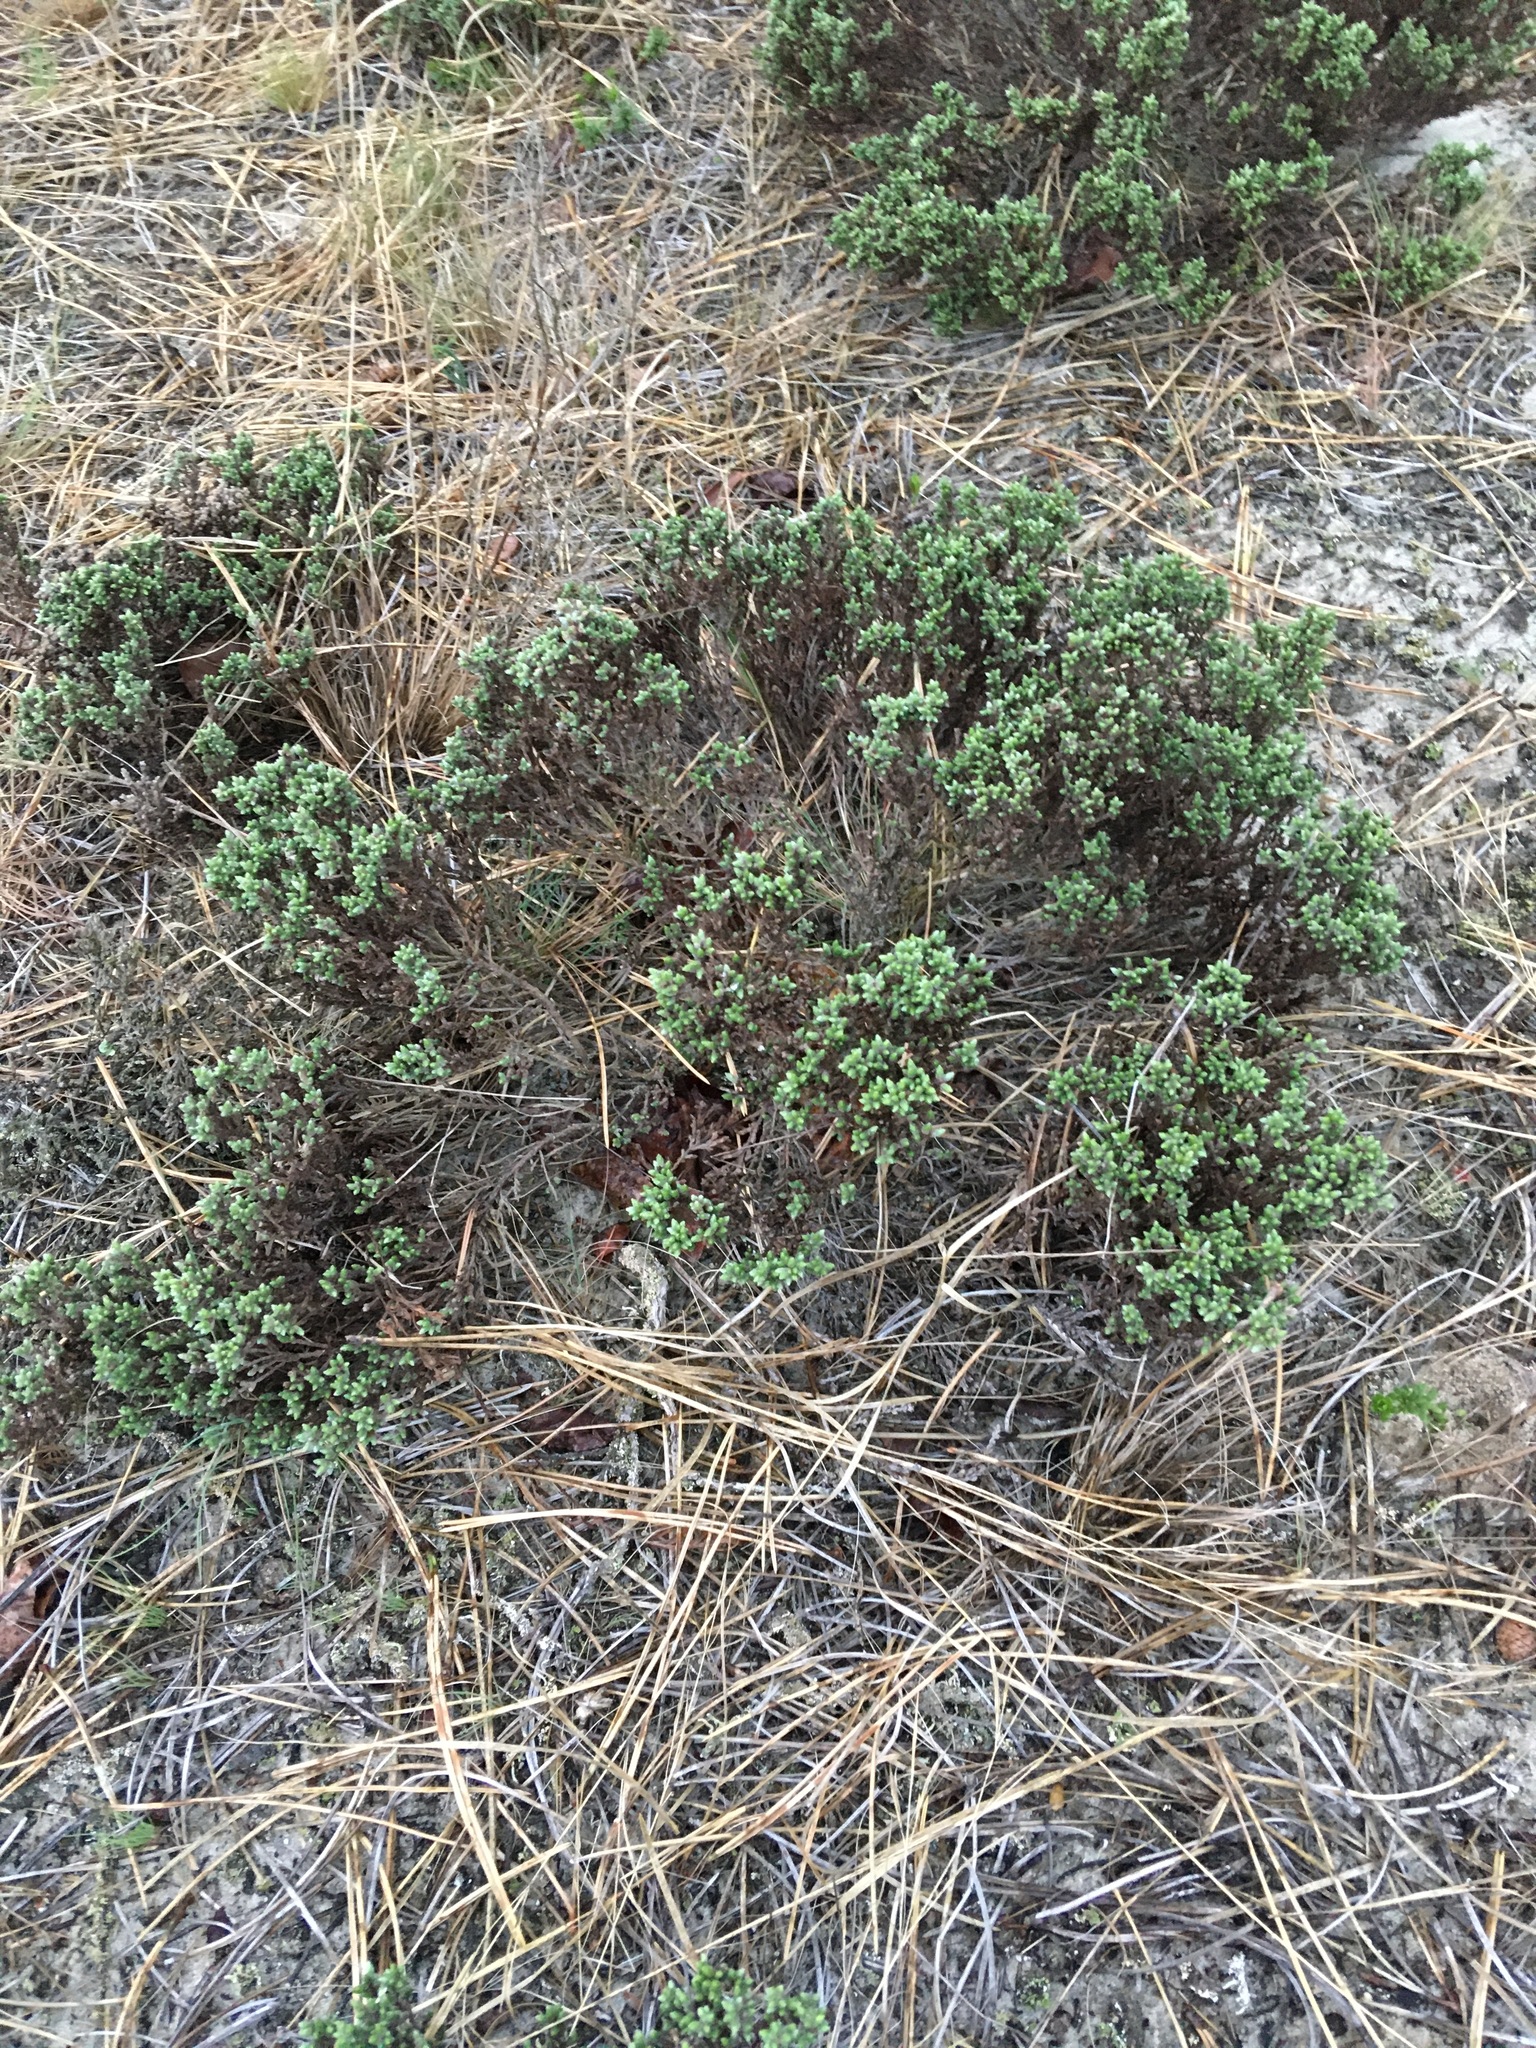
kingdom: Plantae
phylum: Tracheophyta
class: Magnoliopsida
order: Malvales
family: Cistaceae
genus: Hudsonia
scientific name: Hudsonia tomentosa
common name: Beach-heath
